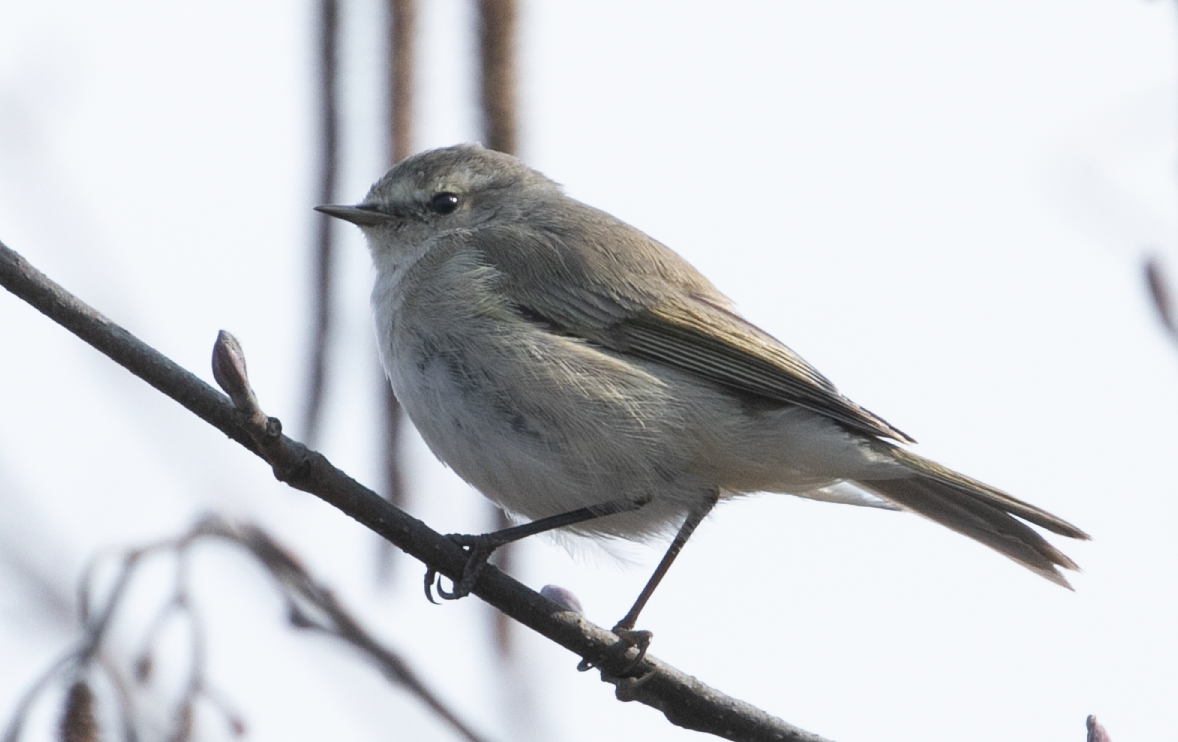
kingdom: Animalia
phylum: Chordata
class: Aves
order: Passeriformes
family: Phylloscopidae
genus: Phylloscopus
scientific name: Phylloscopus collybita
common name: Common chiffchaff
